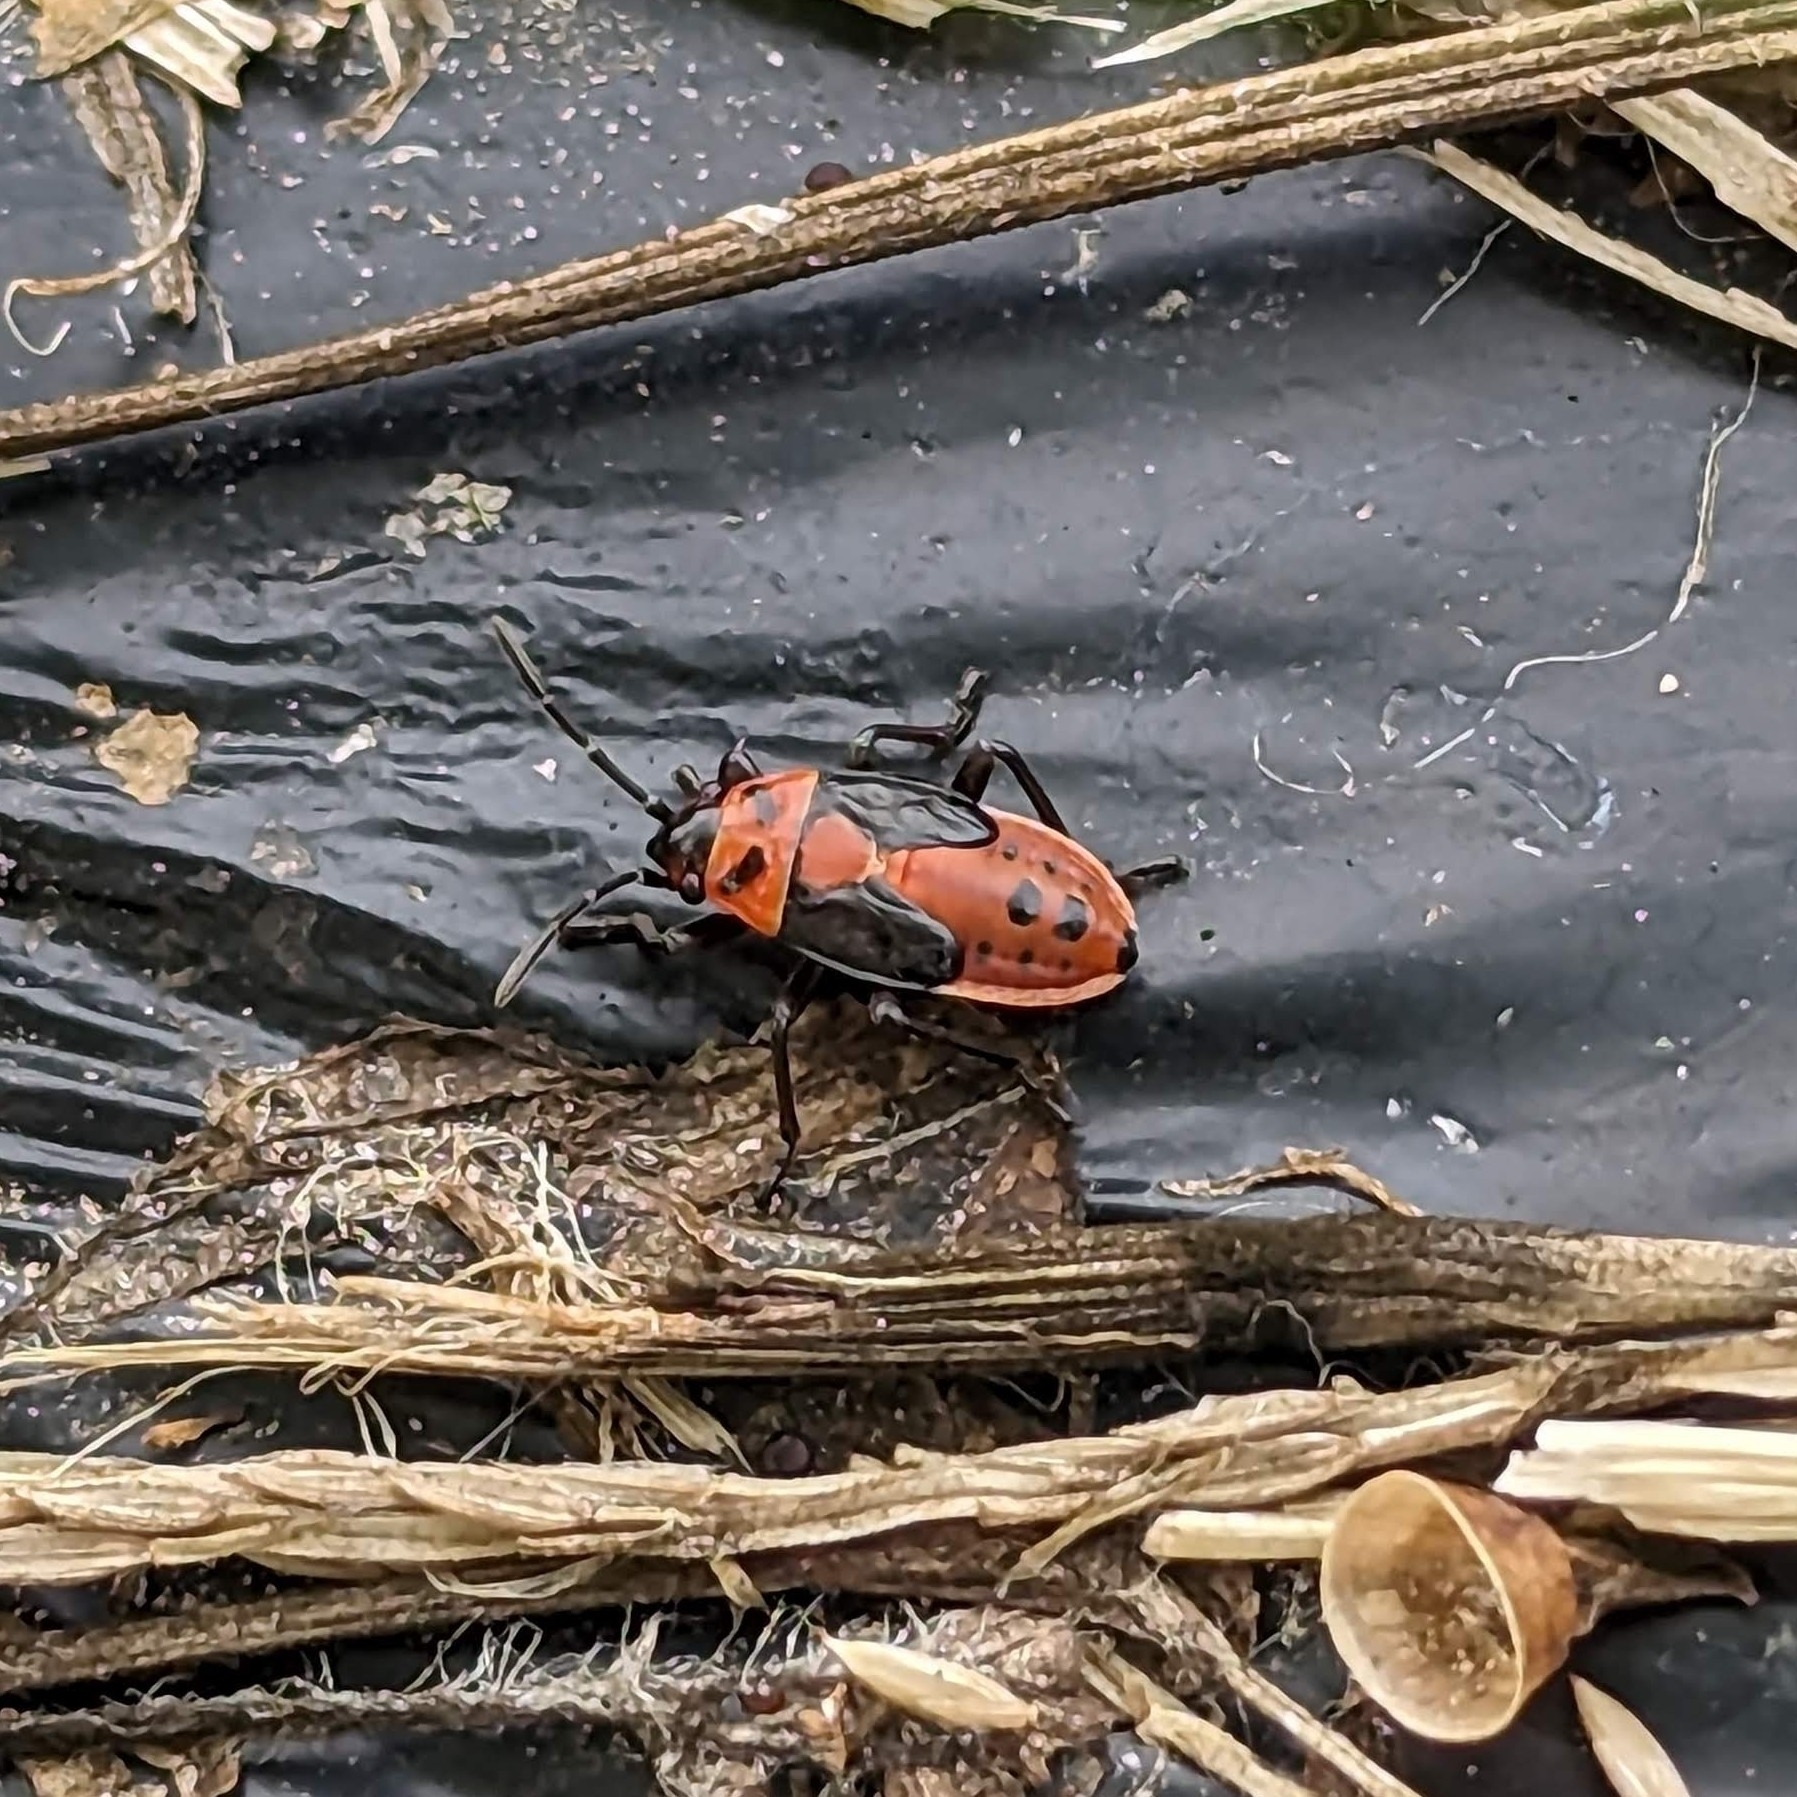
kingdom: Animalia
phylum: Arthropoda
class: Insecta
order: Hemiptera
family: Lygaeidae
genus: Lygaeus
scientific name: Lygaeus kalmii
